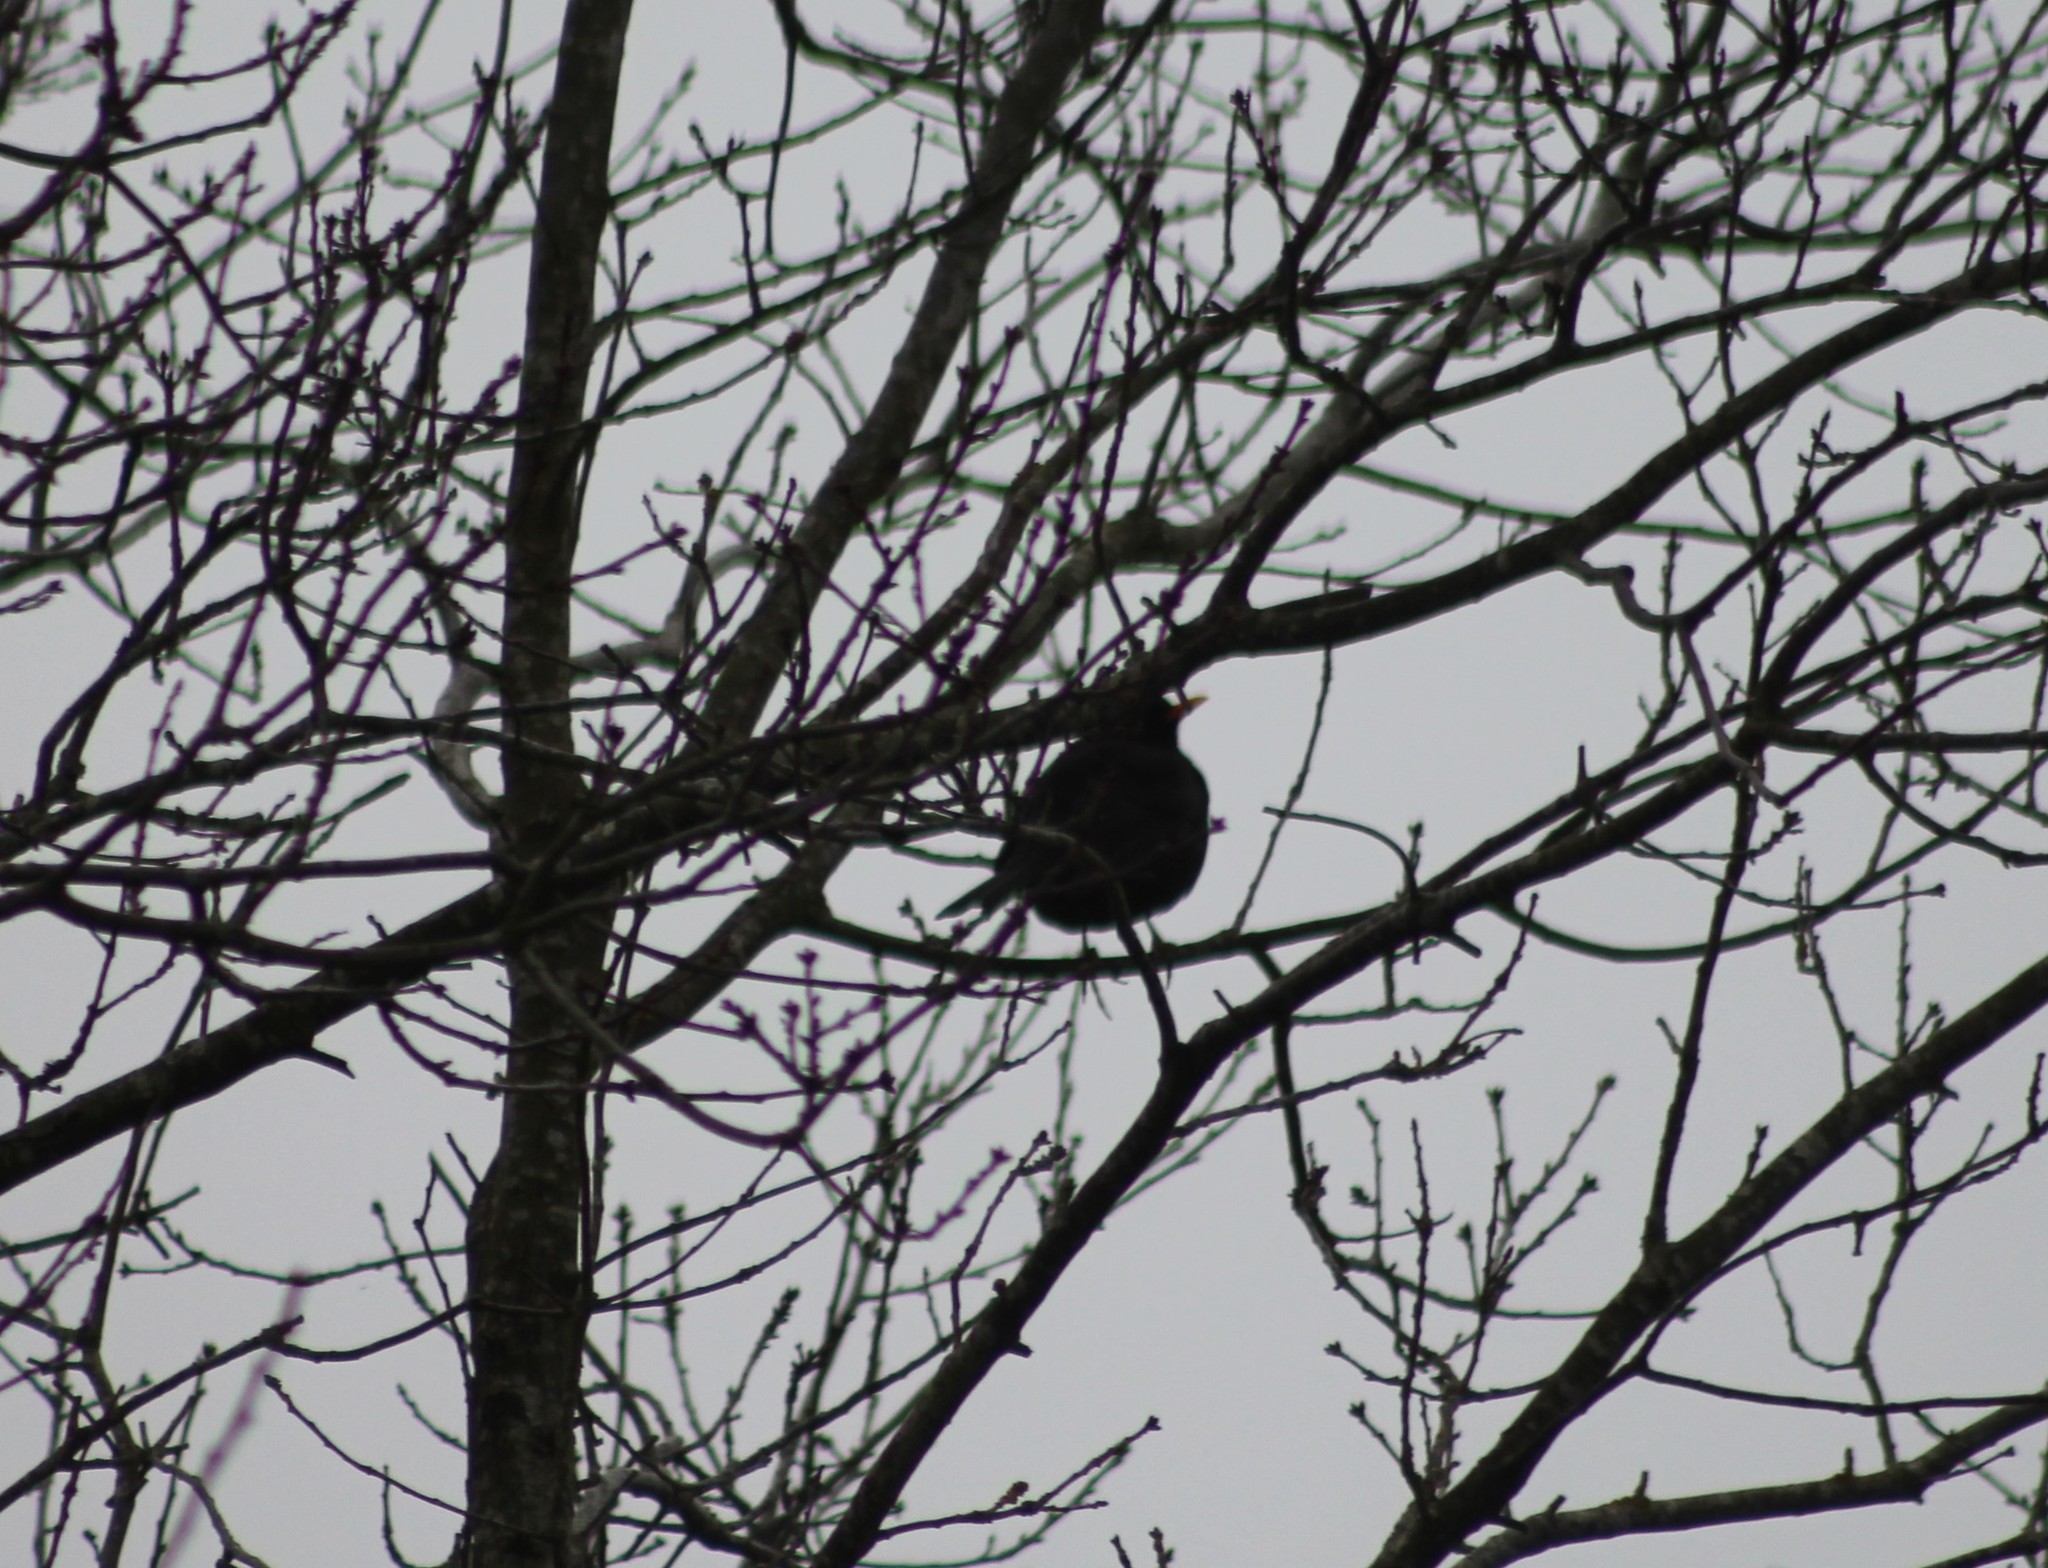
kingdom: Animalia
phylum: Chordata
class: Aves
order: Passeriformes
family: Turdidae
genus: Turdus
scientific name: Turdus merula
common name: Common blackbird
